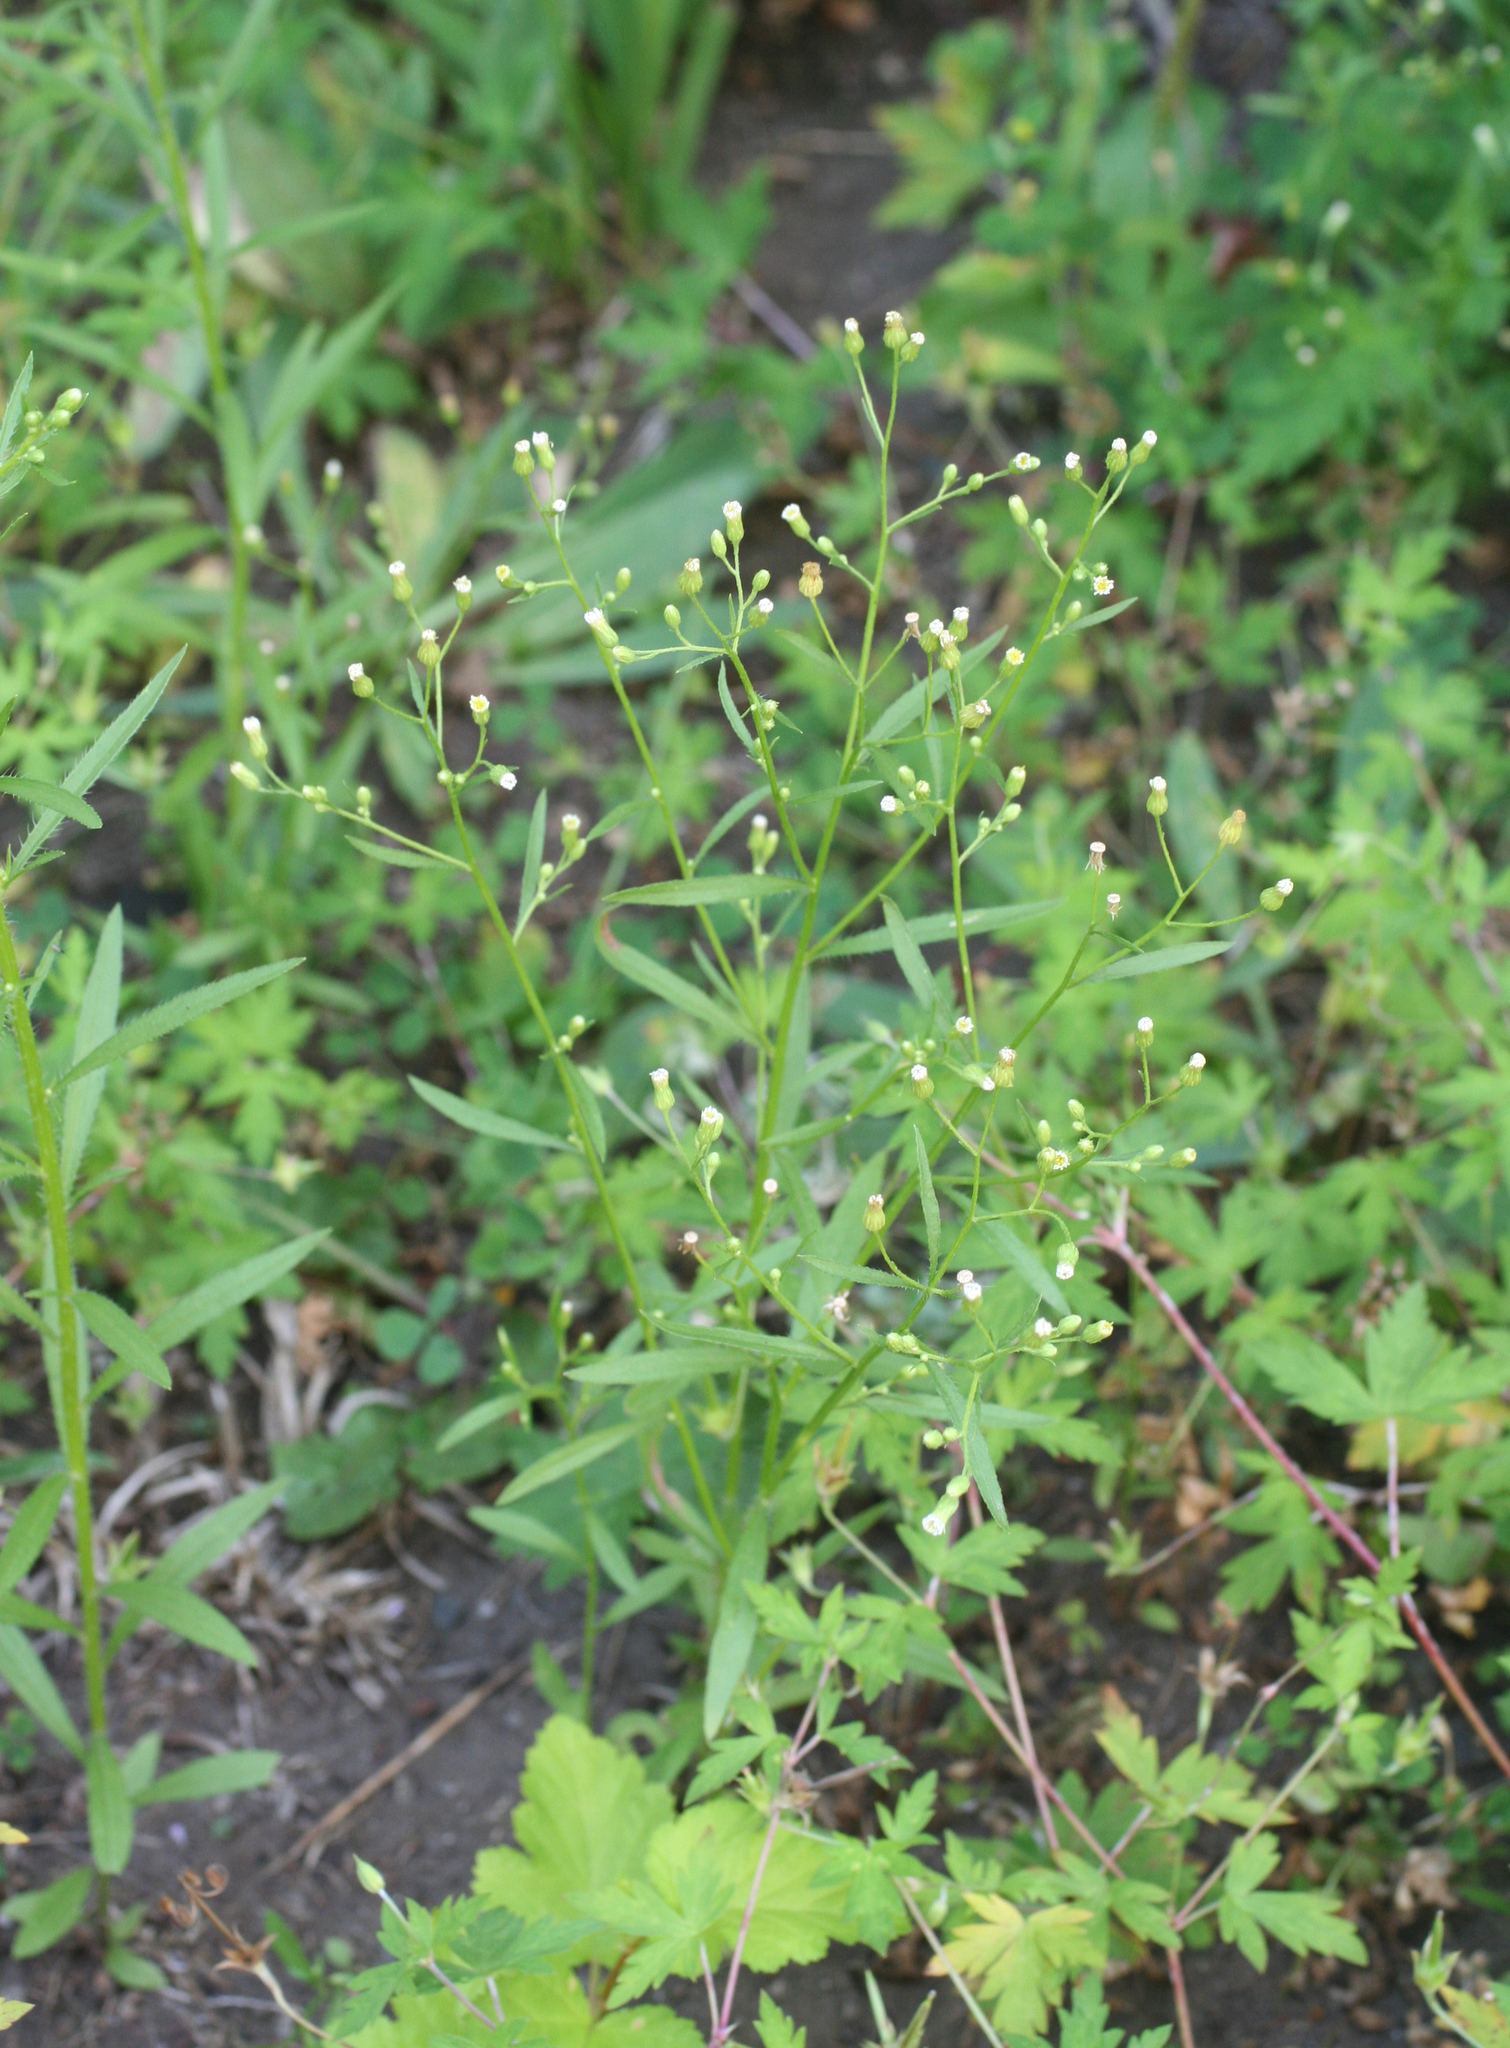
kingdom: Plantae
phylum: Tracheophyta
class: Magnoliopsida
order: Asterales
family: Asteraceae
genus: Erigeron
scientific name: Erigeron canadensis
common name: Canadian fleabane
